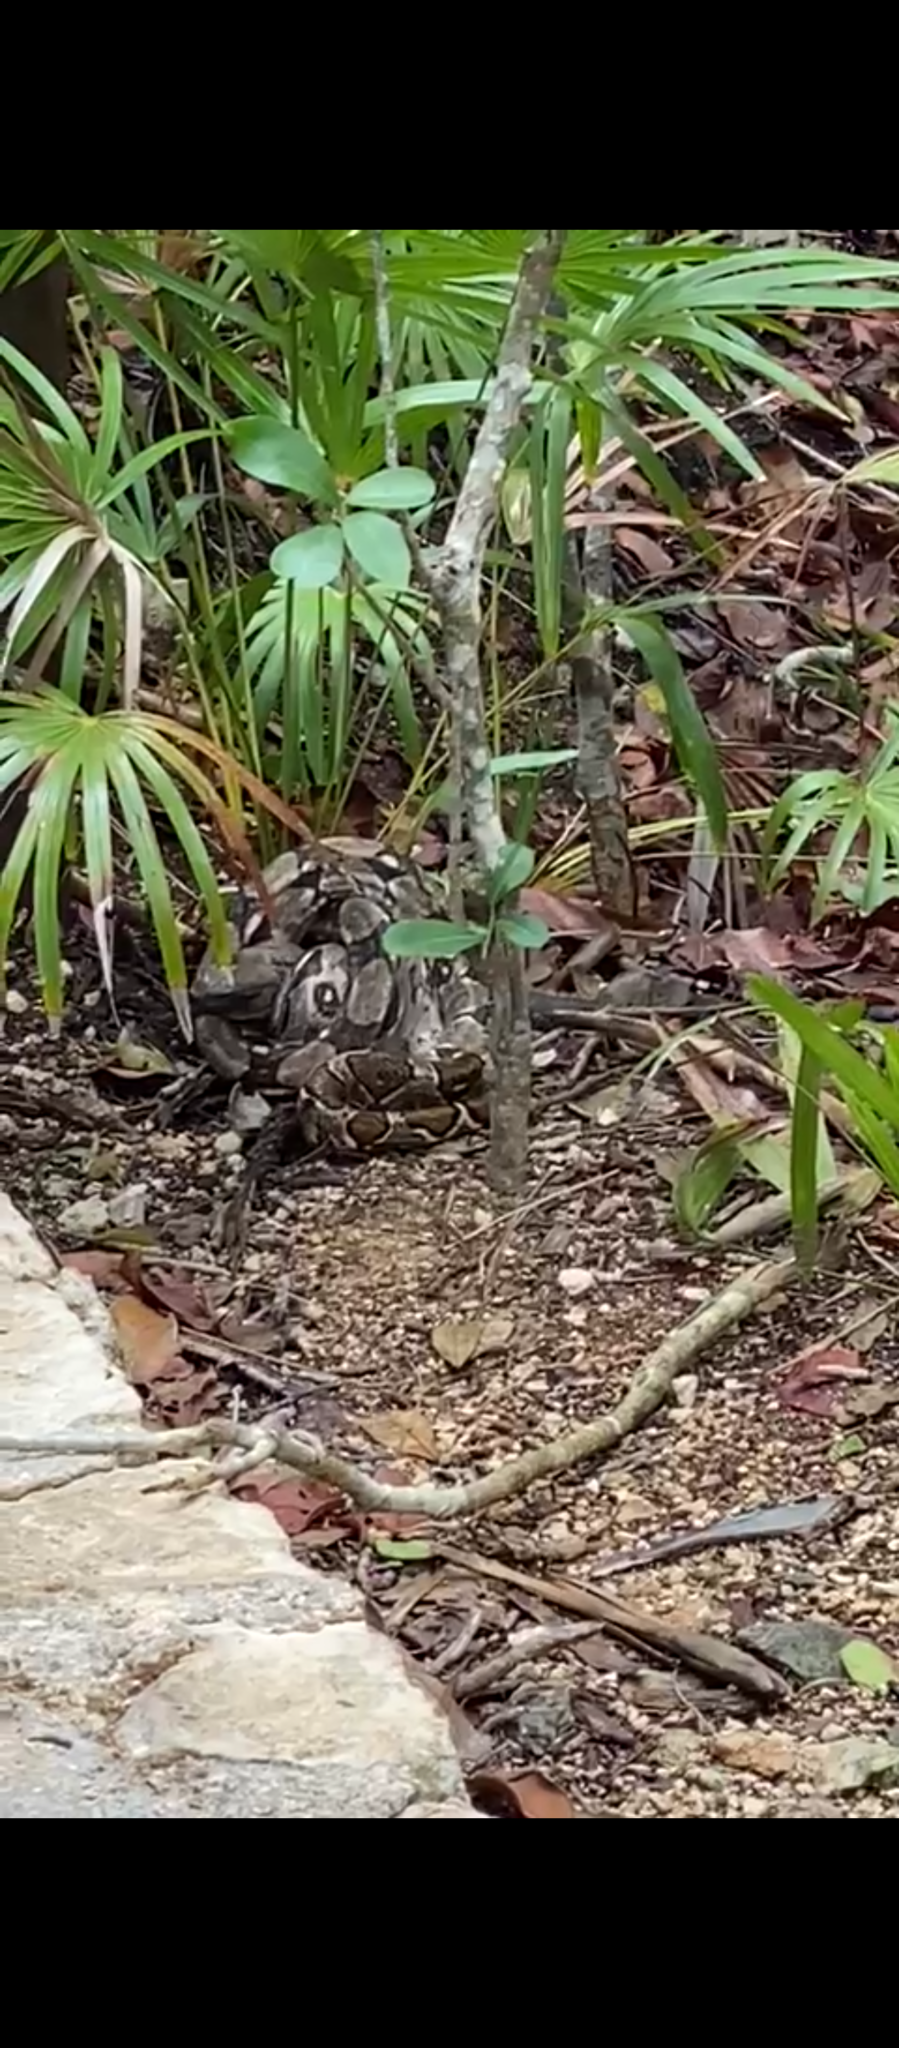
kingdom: Animalia
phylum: Chordata
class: Squamata
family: Boidae
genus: Boa
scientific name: Boa imperator
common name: Central american boa
